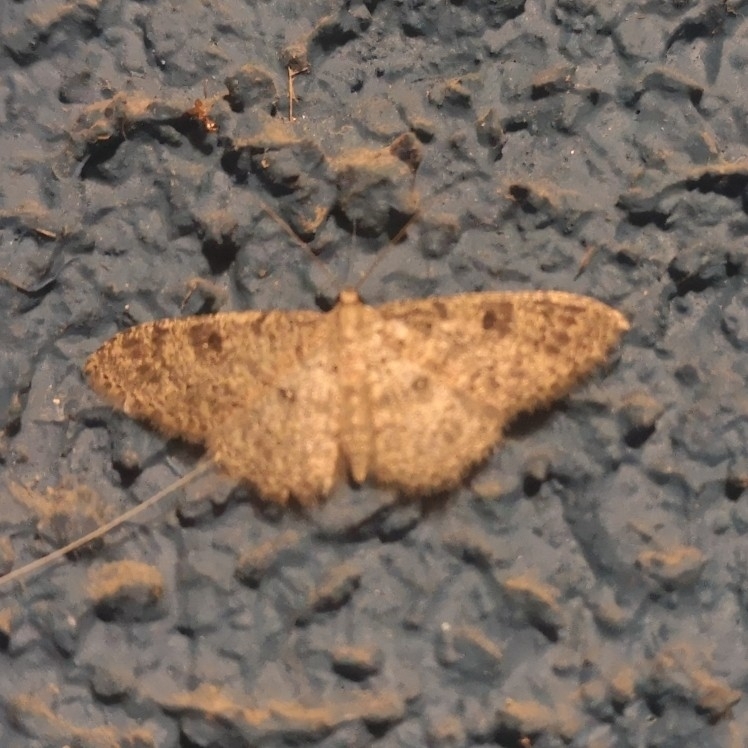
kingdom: Animalia
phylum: Arthropoda
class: Insecta
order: Lepidoptera
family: Geometridae
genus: Cyclophora
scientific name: Cyclophora nanaria
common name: Cankerworm
